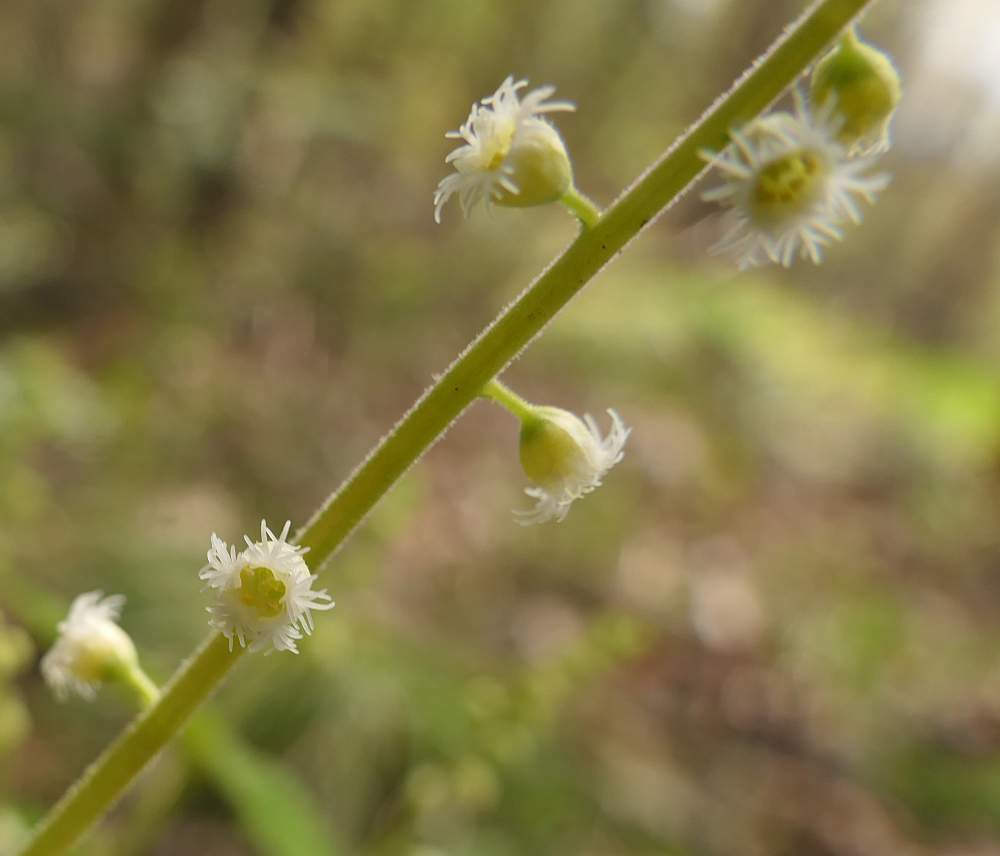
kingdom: Plantae
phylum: Tracheophyta
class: Magnoliopsida
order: Saxifragales
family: Saxifragaceae
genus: Mitella
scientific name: Mitella diphylla
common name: Coolwort
